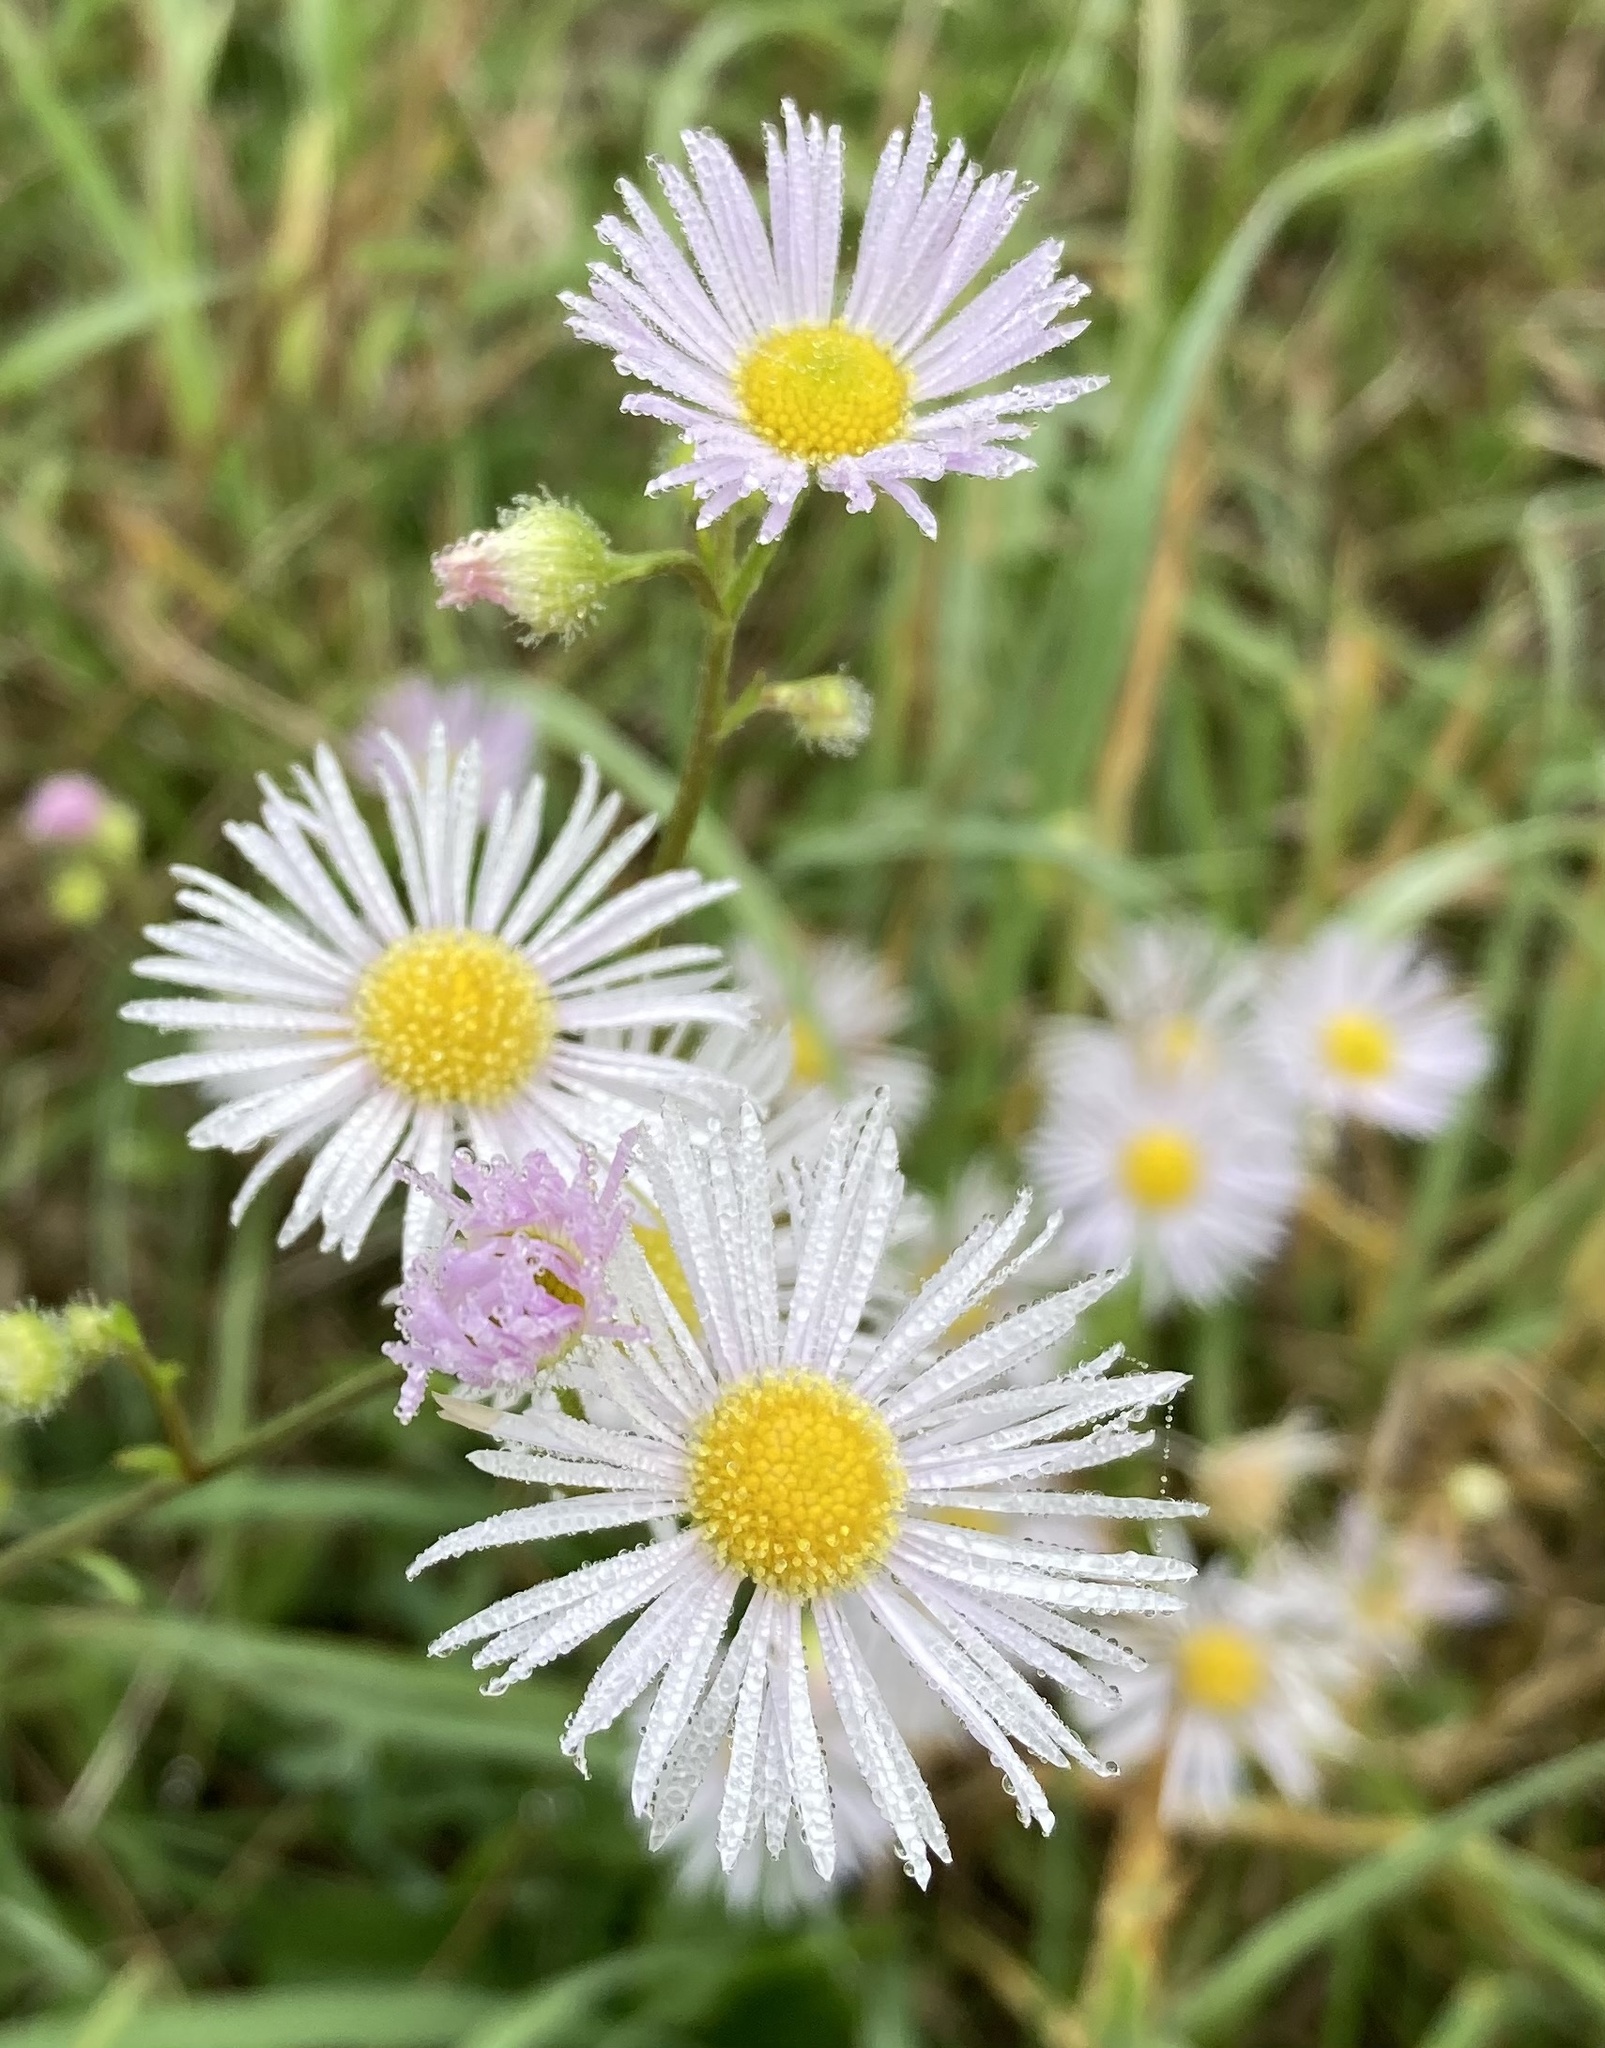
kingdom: Plantae
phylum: Tracheophyta
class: Magnoliopsida
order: Asterales
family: Asteraceae
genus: Erigeron
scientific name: Erigeron annuus
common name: Tall fleabane
